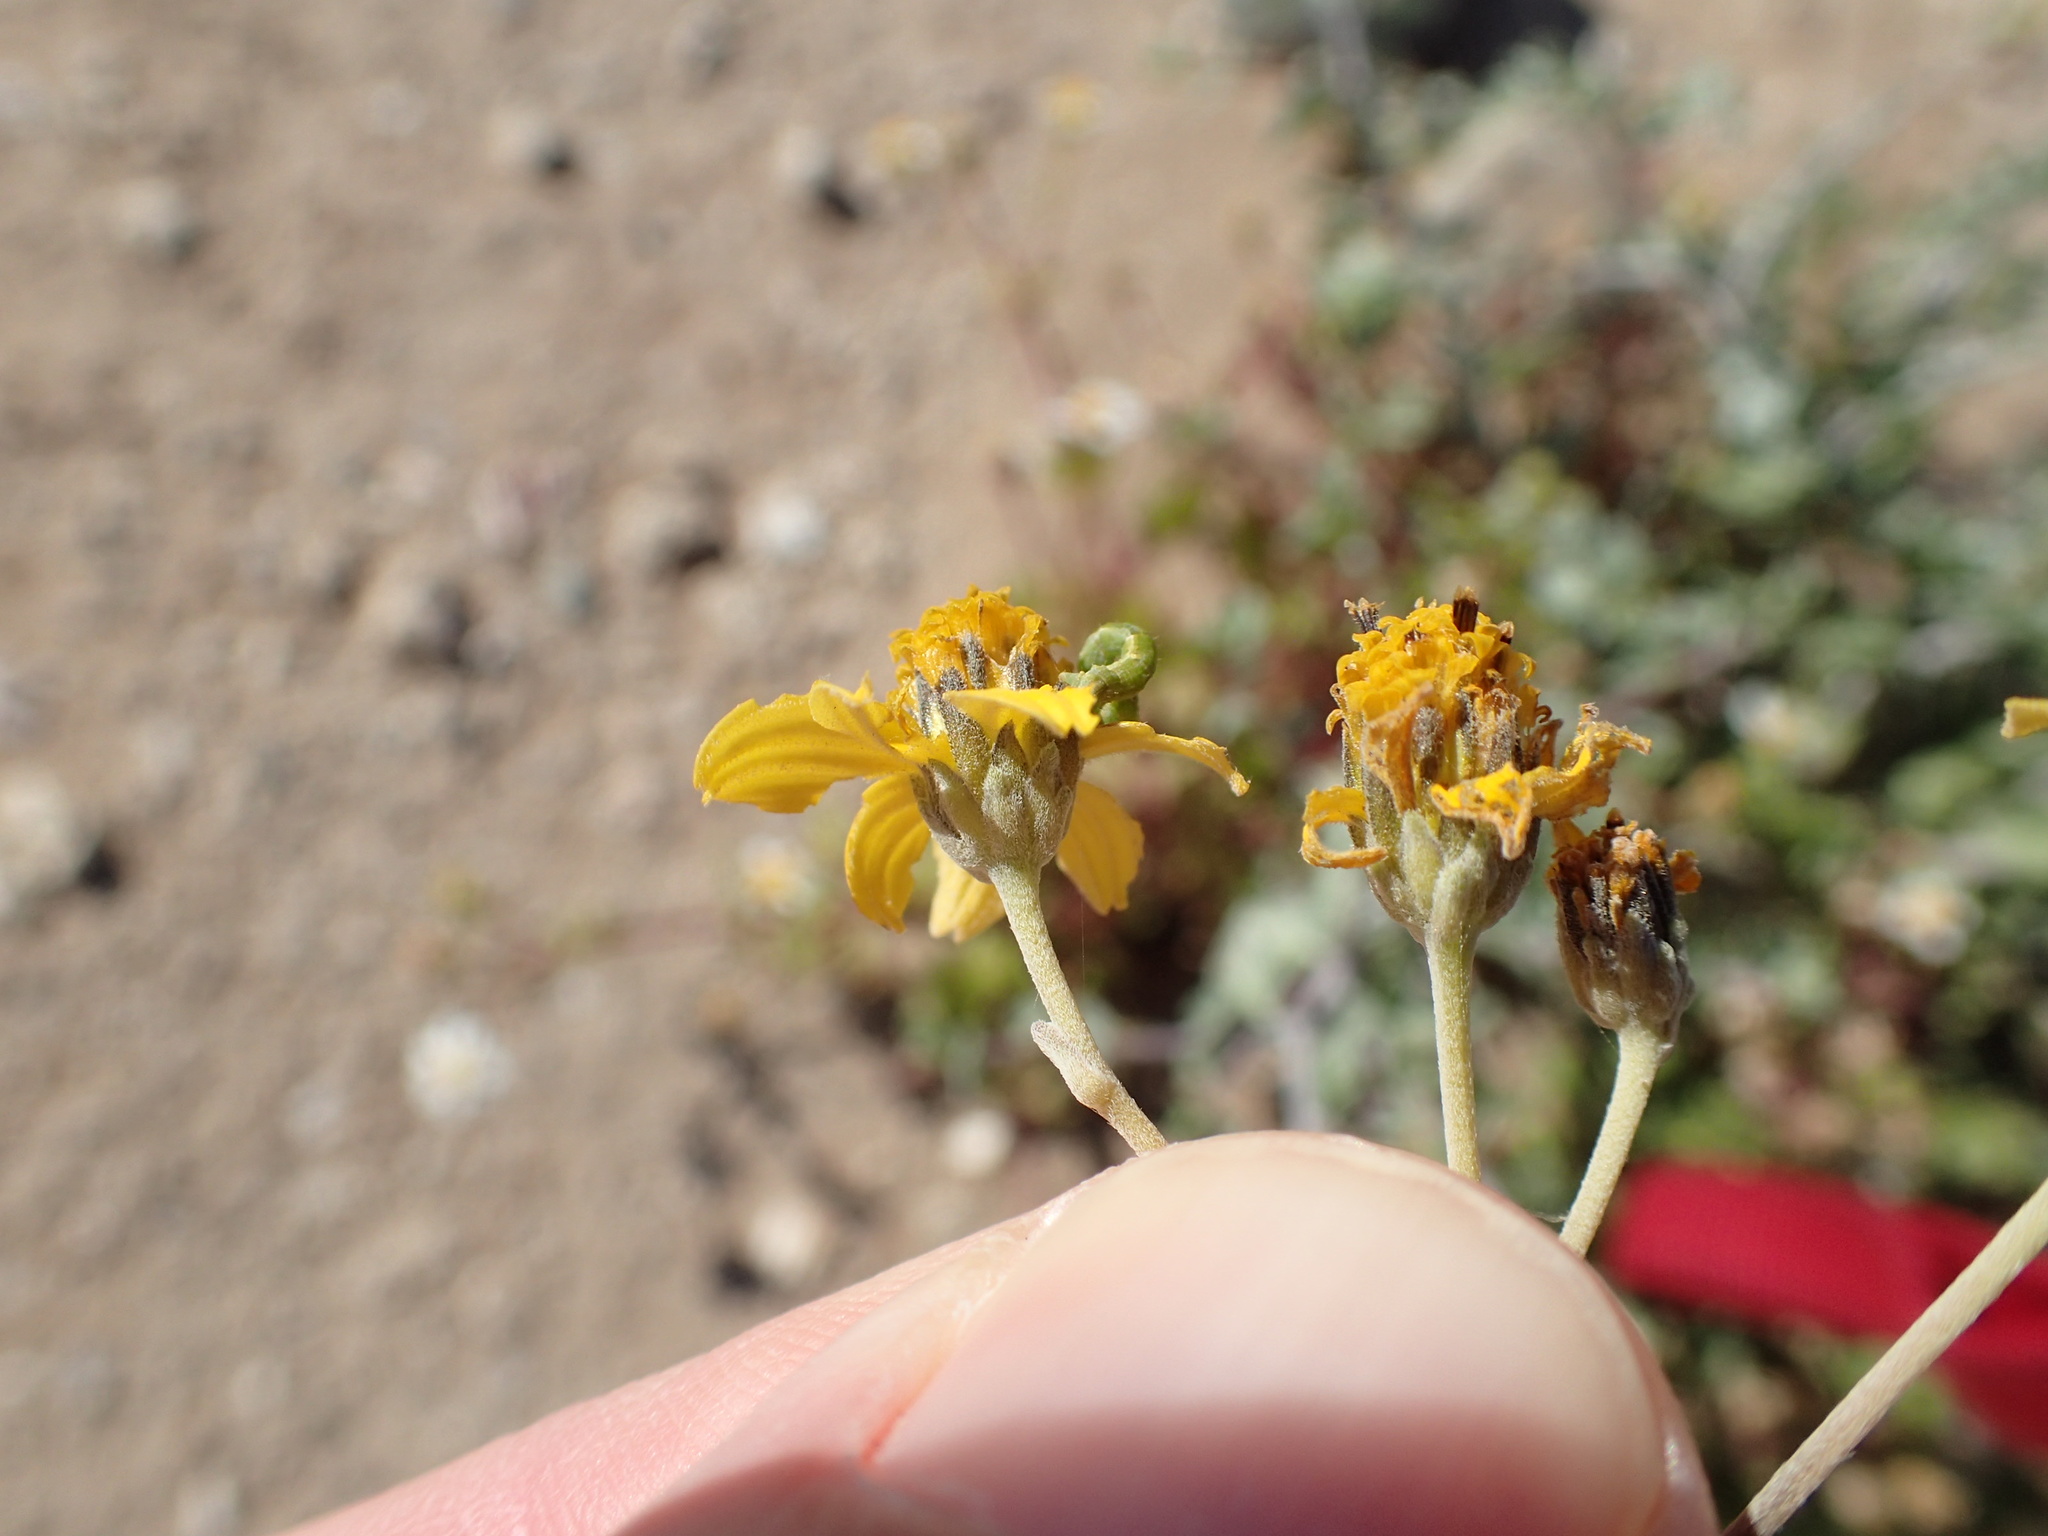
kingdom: Plantae
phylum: Tracheophyta
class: Magnoliopsida
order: Asterales
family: Asteraceae
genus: Bahiopsis
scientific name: Bahiopsis microphylla
